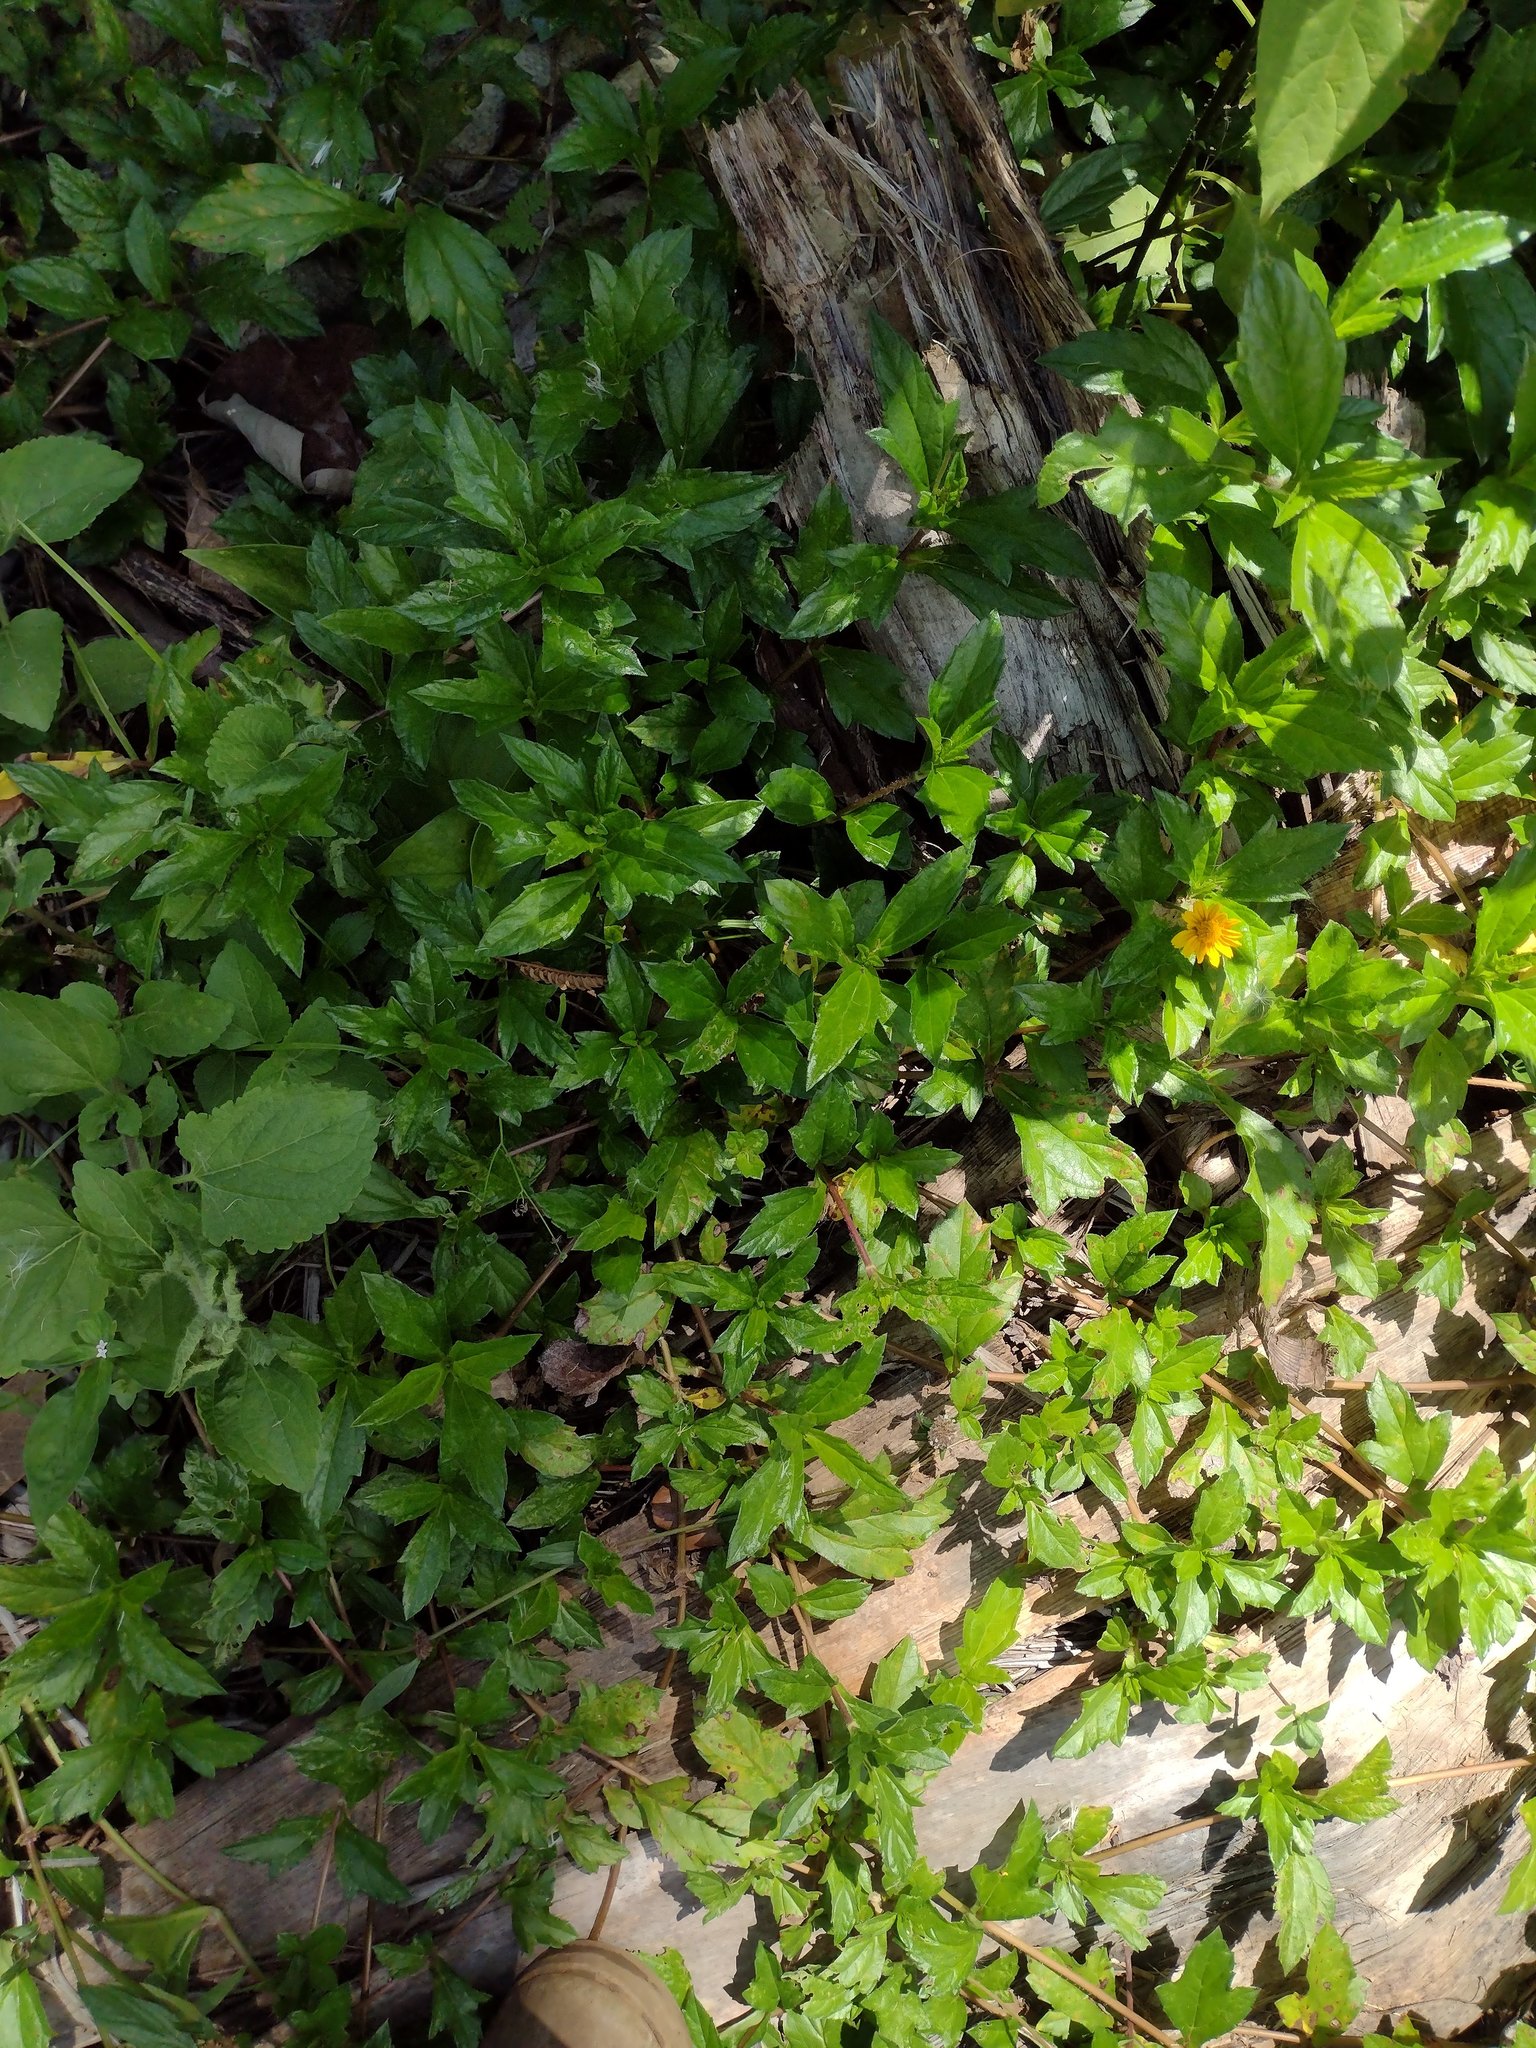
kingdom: Plantae
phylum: Tracheophyta
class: Magnoliopsida
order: Asterales
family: Asteraceae
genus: Sphagneticola
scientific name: Sphagneticola trilobata
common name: Bay biscayne creeping-oxeye
